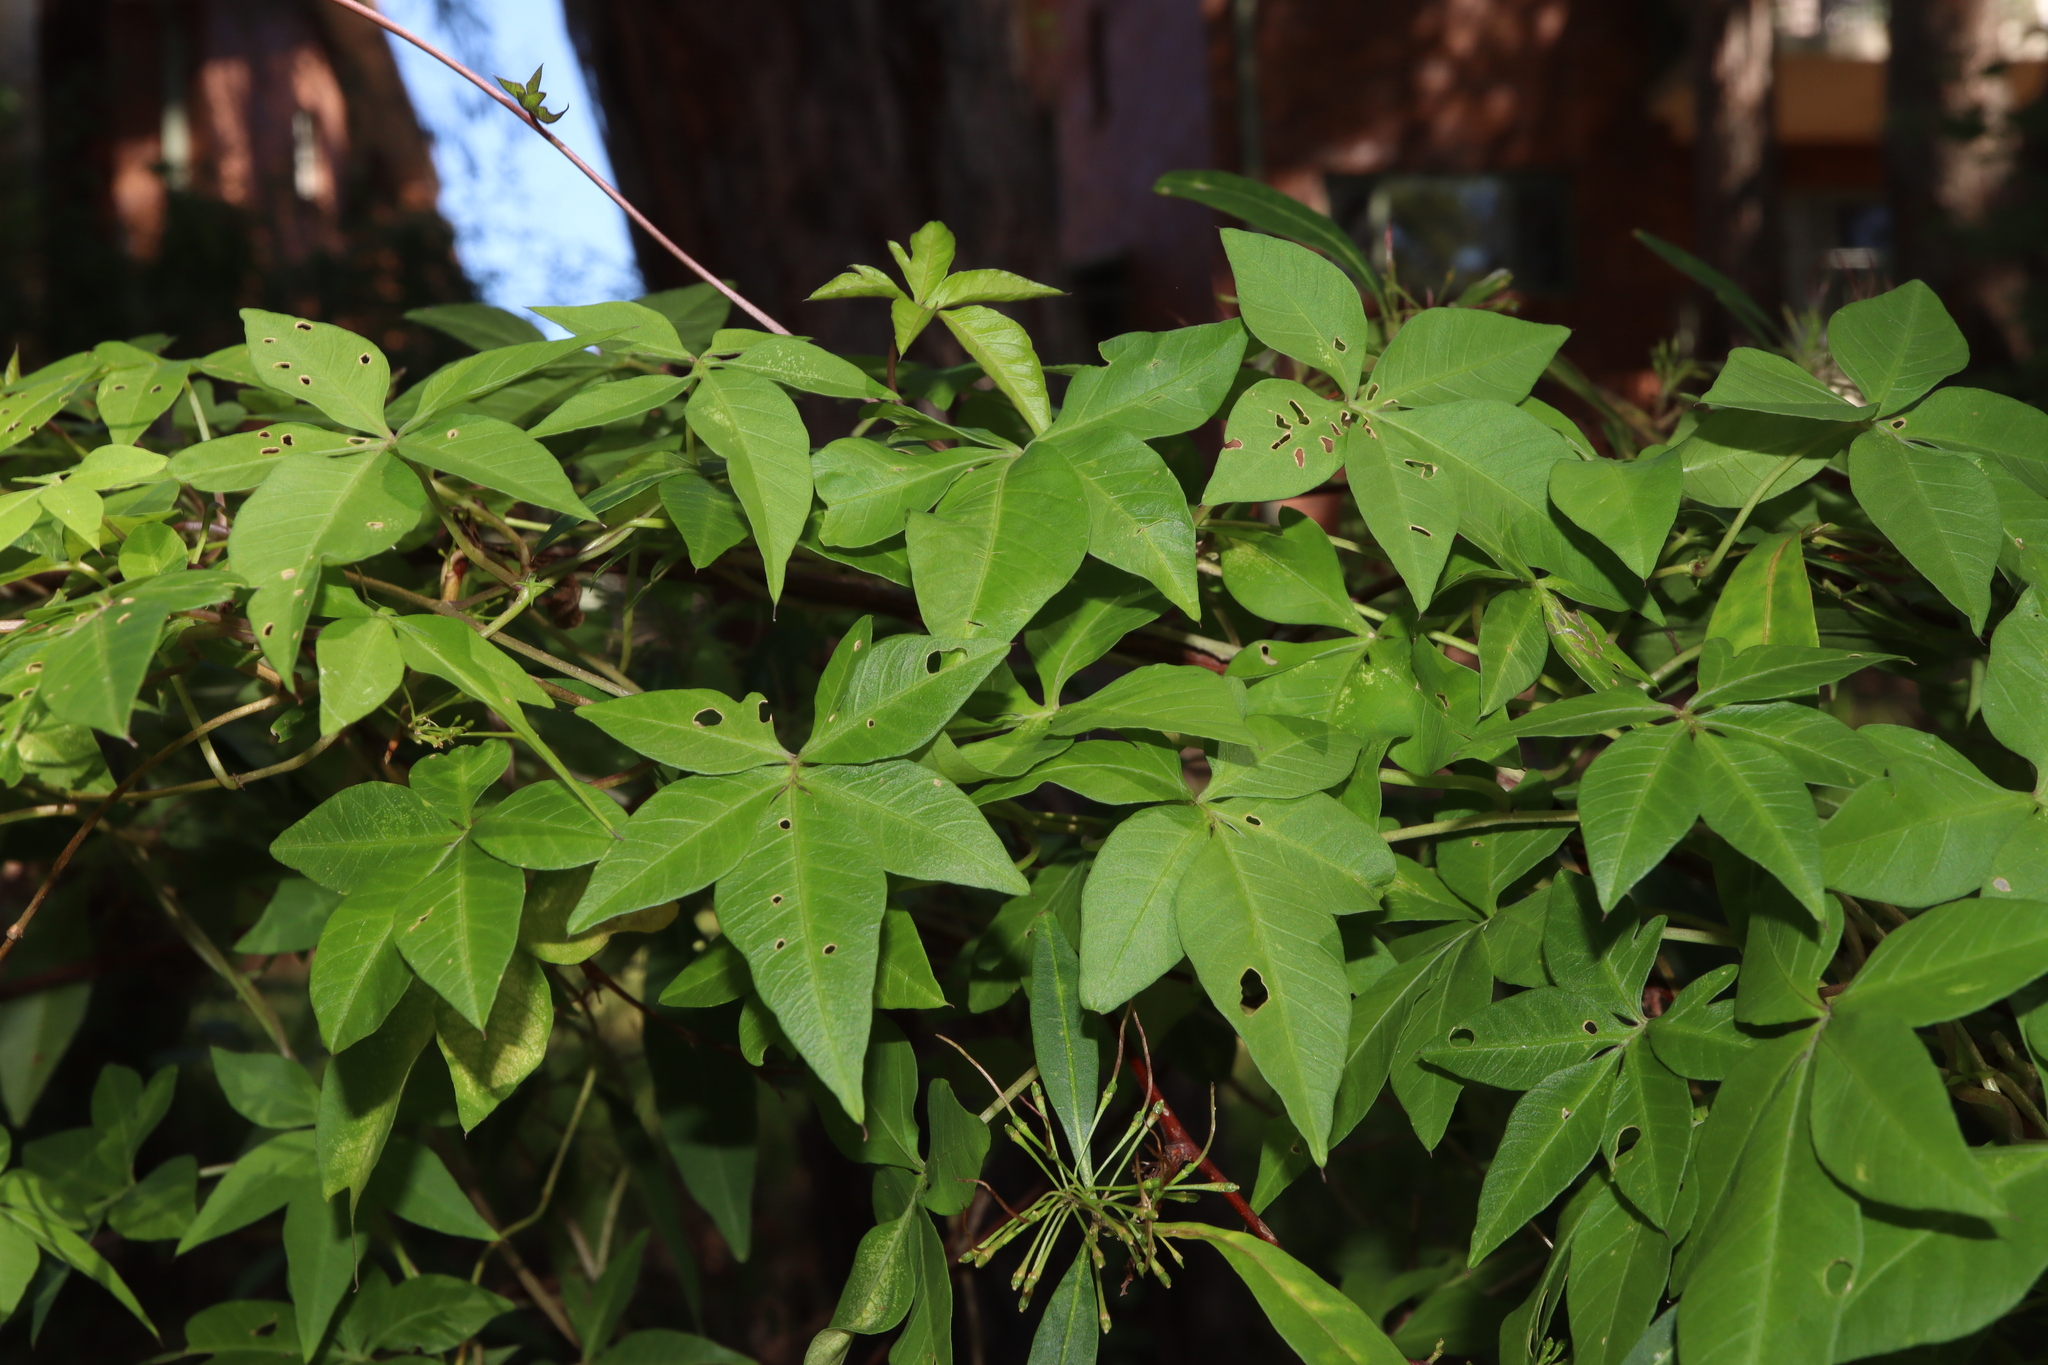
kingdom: Plantae
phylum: Tracheophyta
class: Magnoliopsida
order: Solanales
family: Convolvulaceae
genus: Ipomoea
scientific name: Ipomoea cairica
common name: Mile a minute vine
